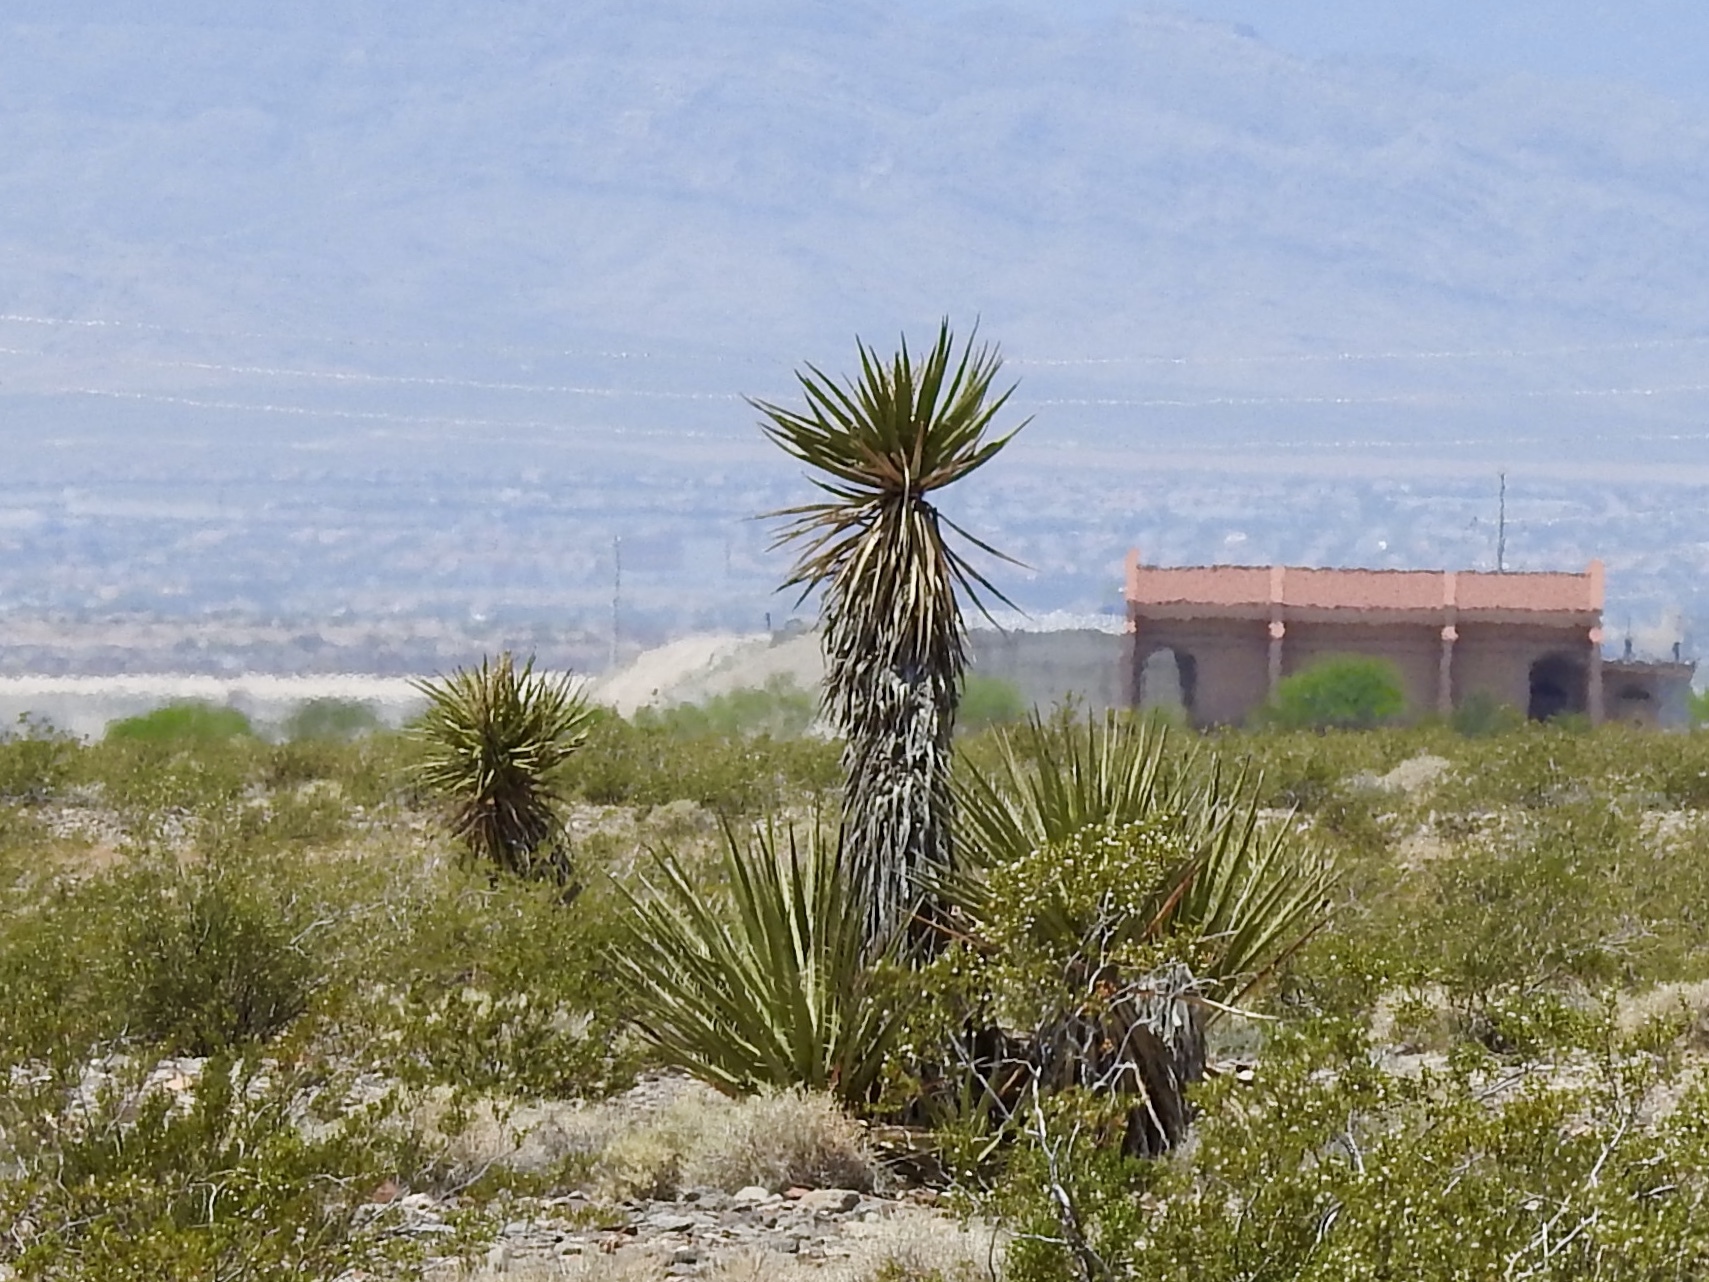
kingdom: Plantae
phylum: Tracheophyta
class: Liliopsida
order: Asparagales
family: Asparagaceae
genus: Yucca
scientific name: Yucca schidigera
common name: Mojave yucca
